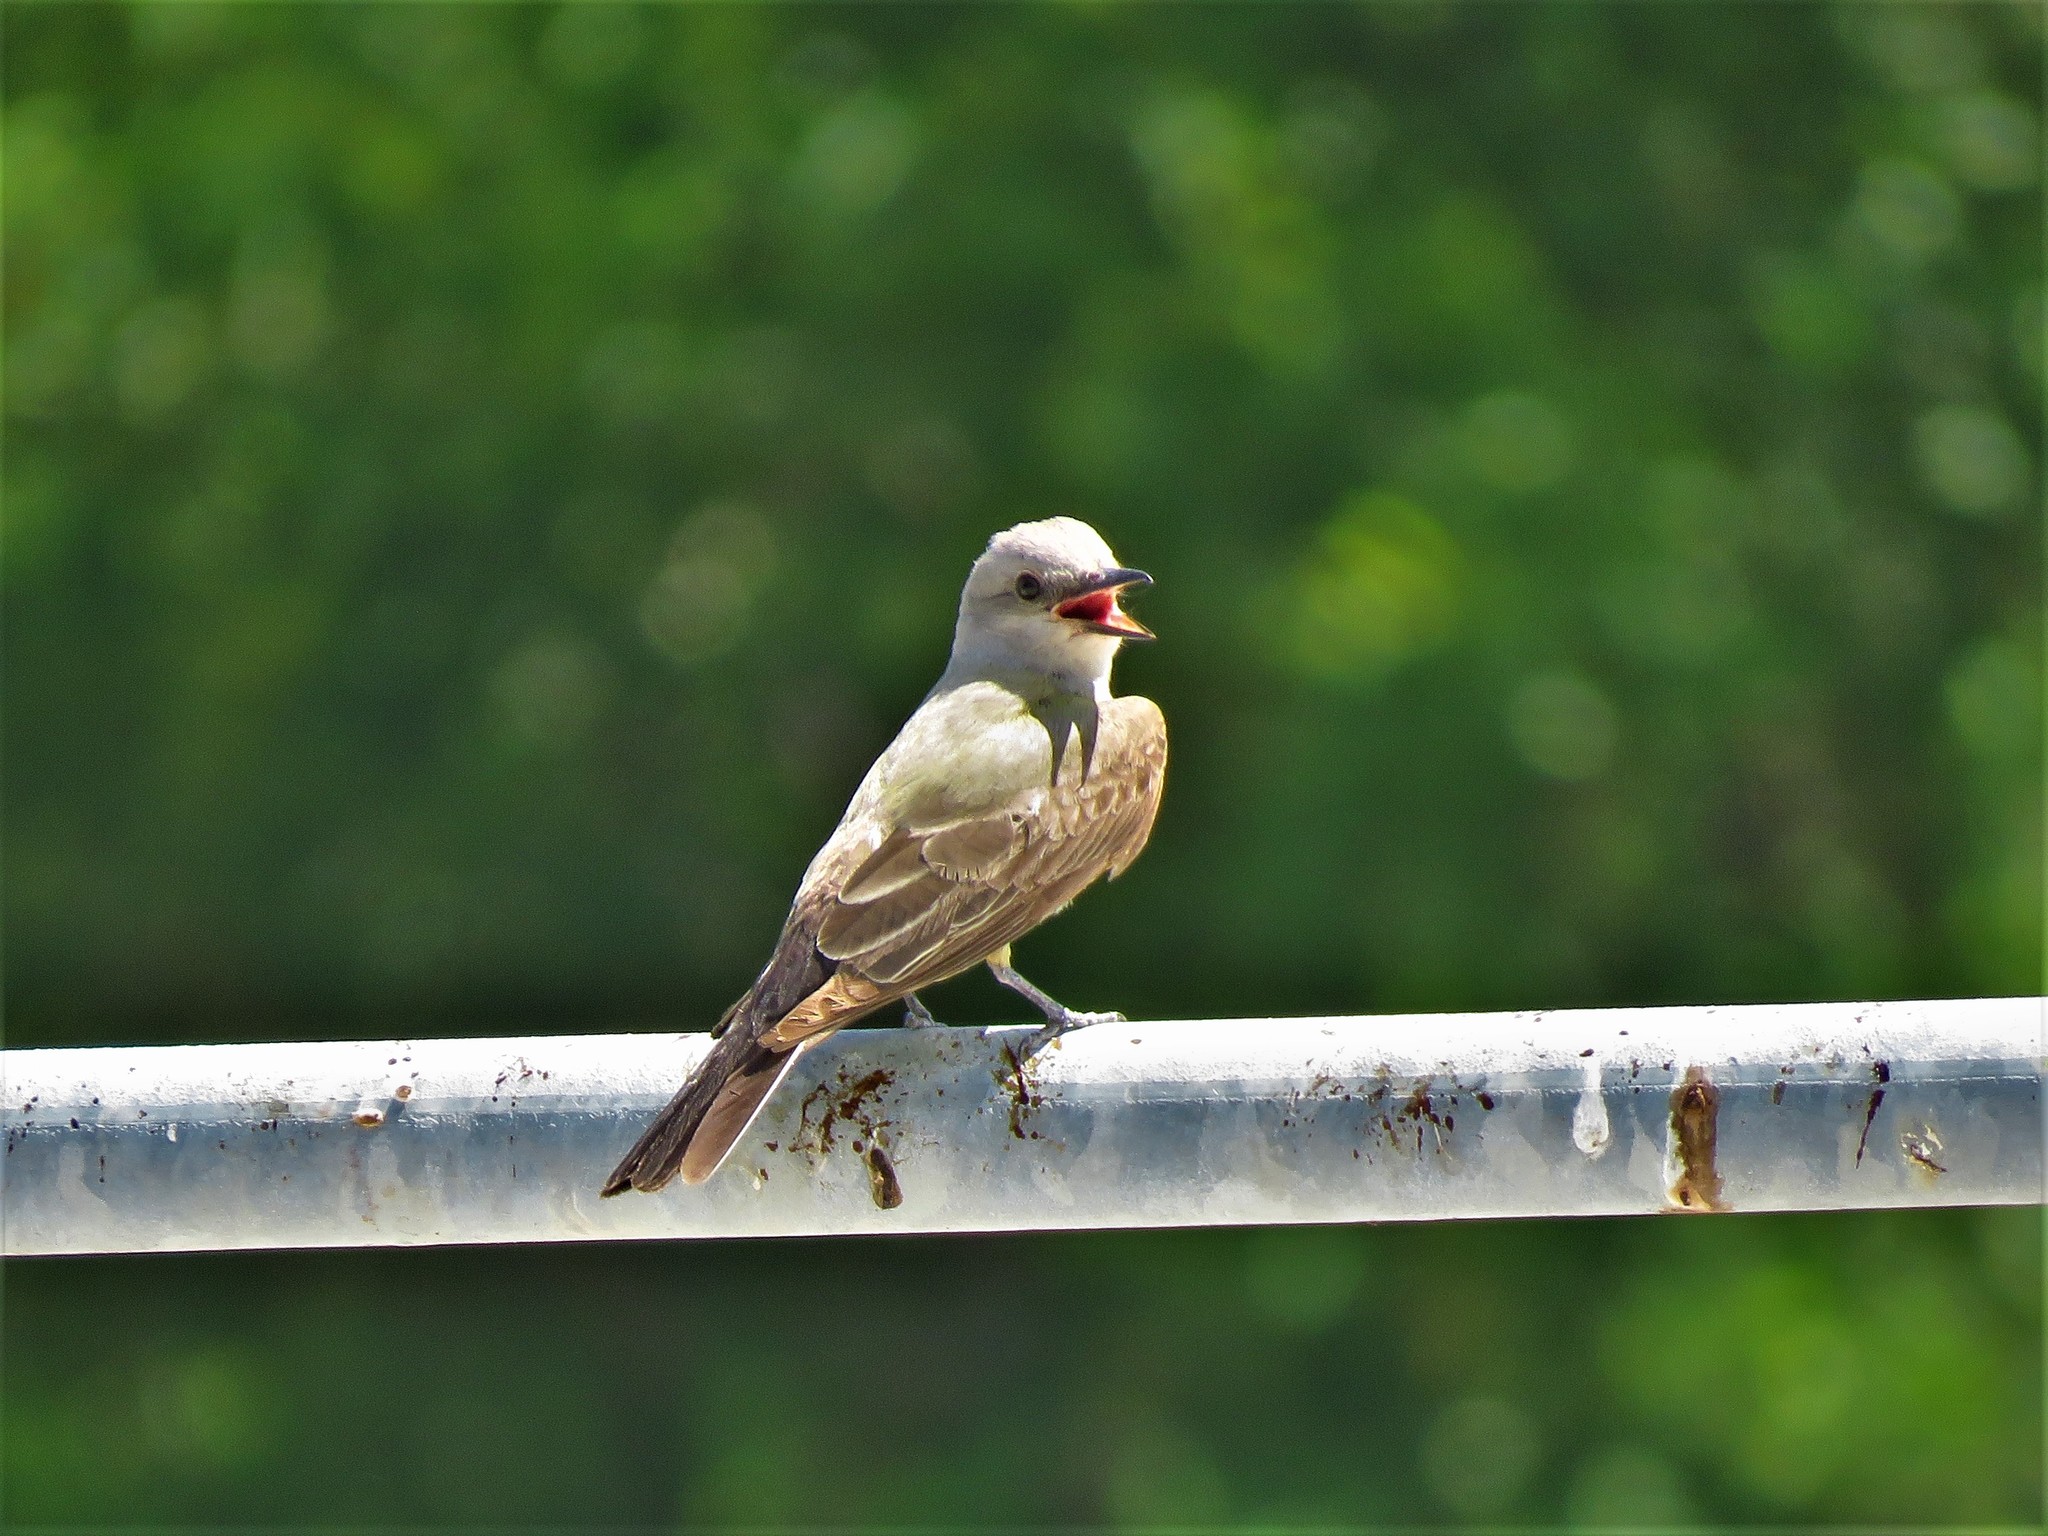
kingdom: Animalia
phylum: Chordata
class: Aves
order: Passeriformes
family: Tyrannidae
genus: Tyrannus
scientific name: Tyrannus verticalis
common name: Western kingbird
